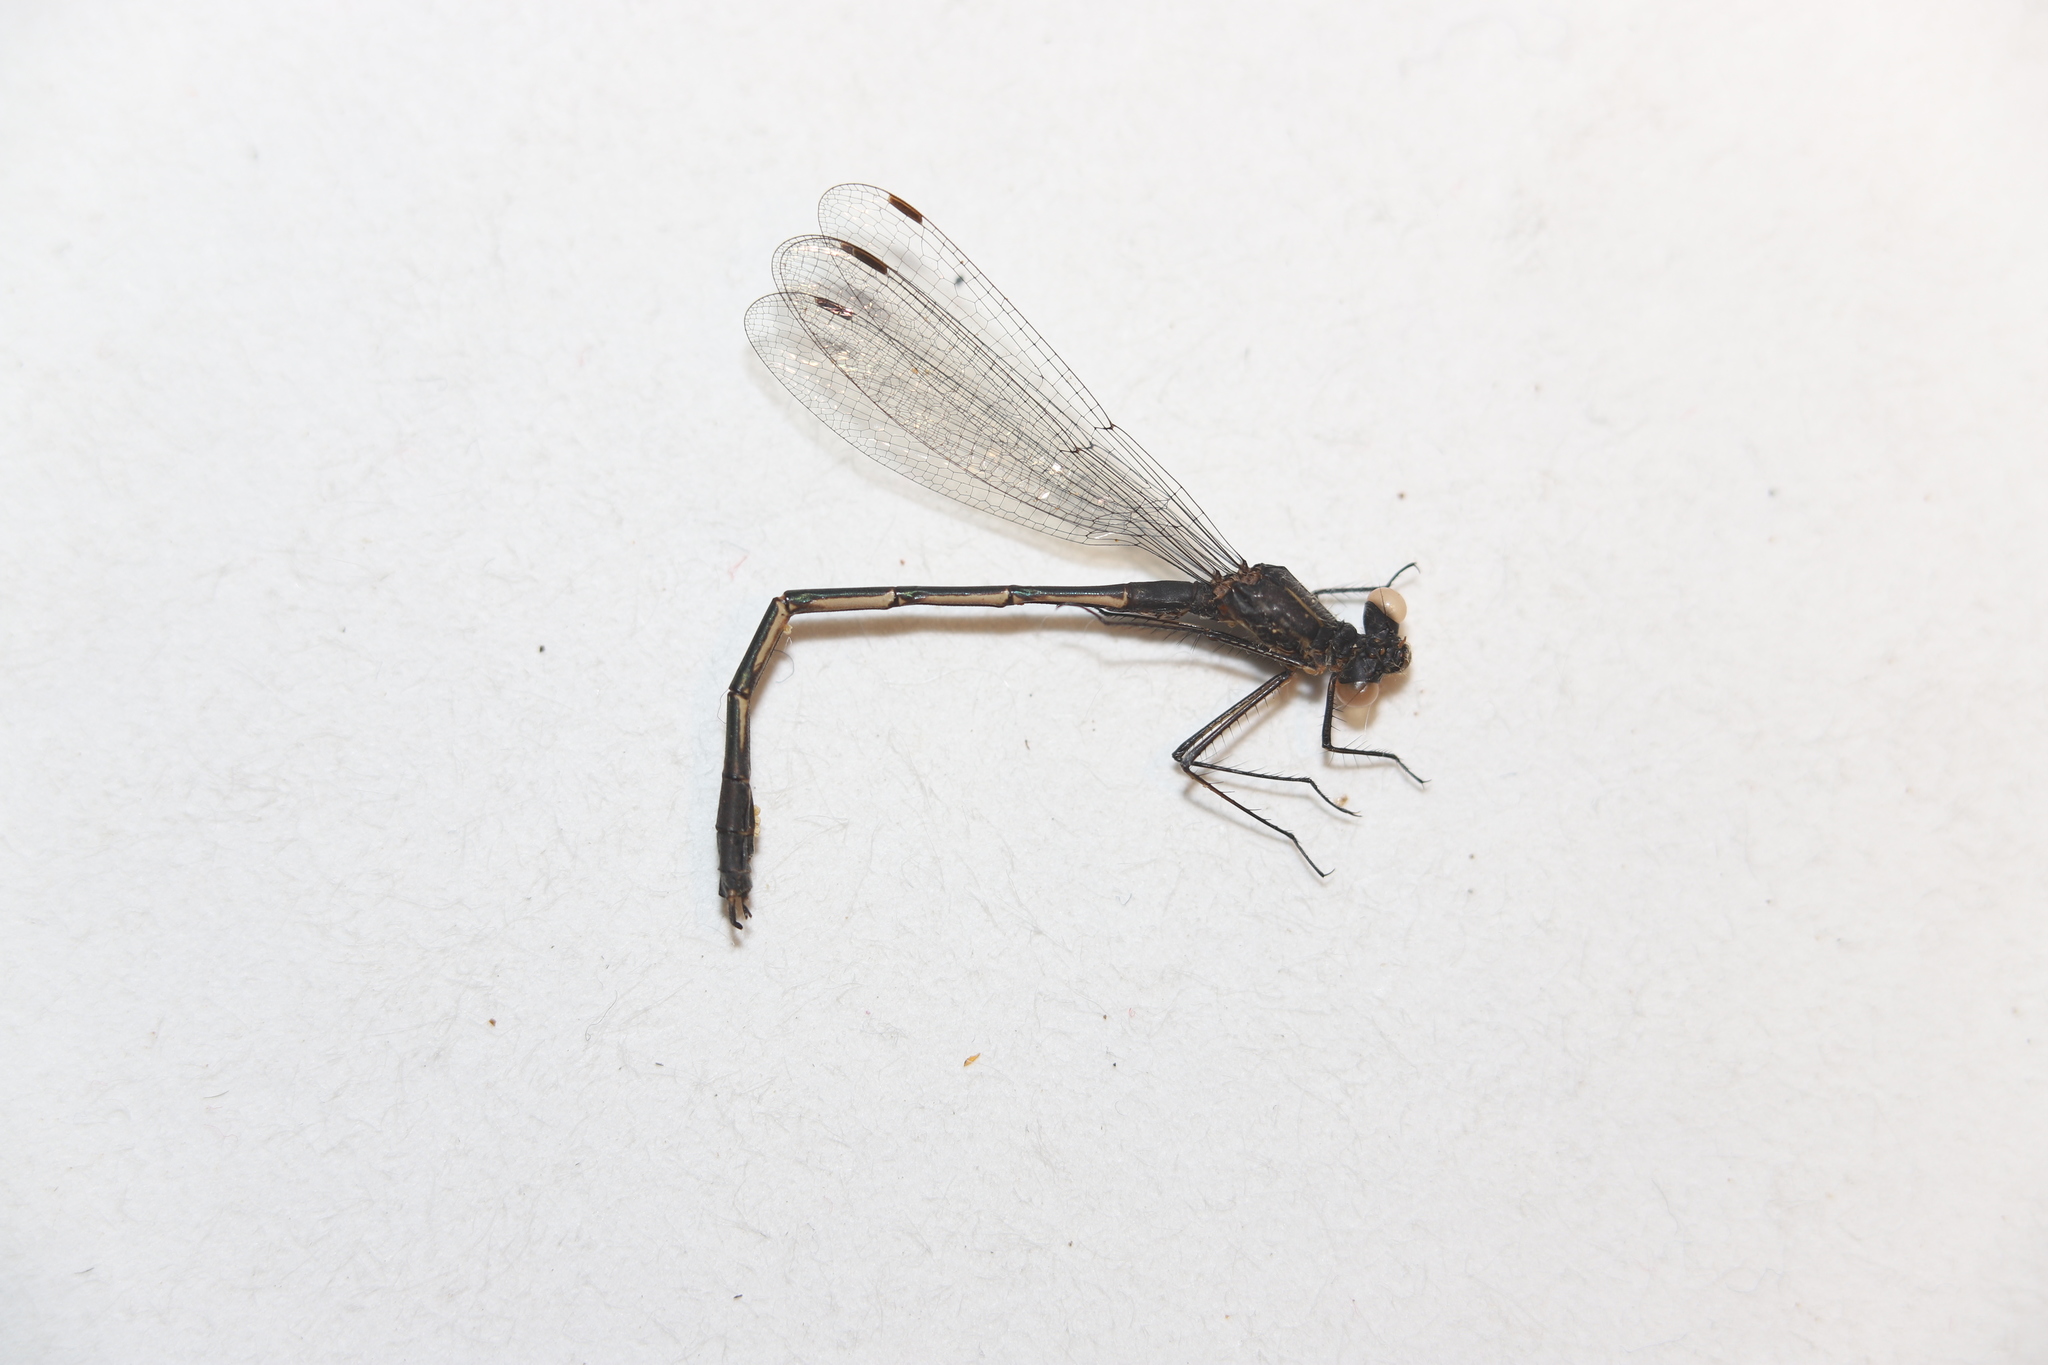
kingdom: Animalia
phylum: Arthropoda
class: Insecta
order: Odonata
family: Lestidae
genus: Lestes
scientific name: Lestes disjunctus
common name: Northern spreadwing
